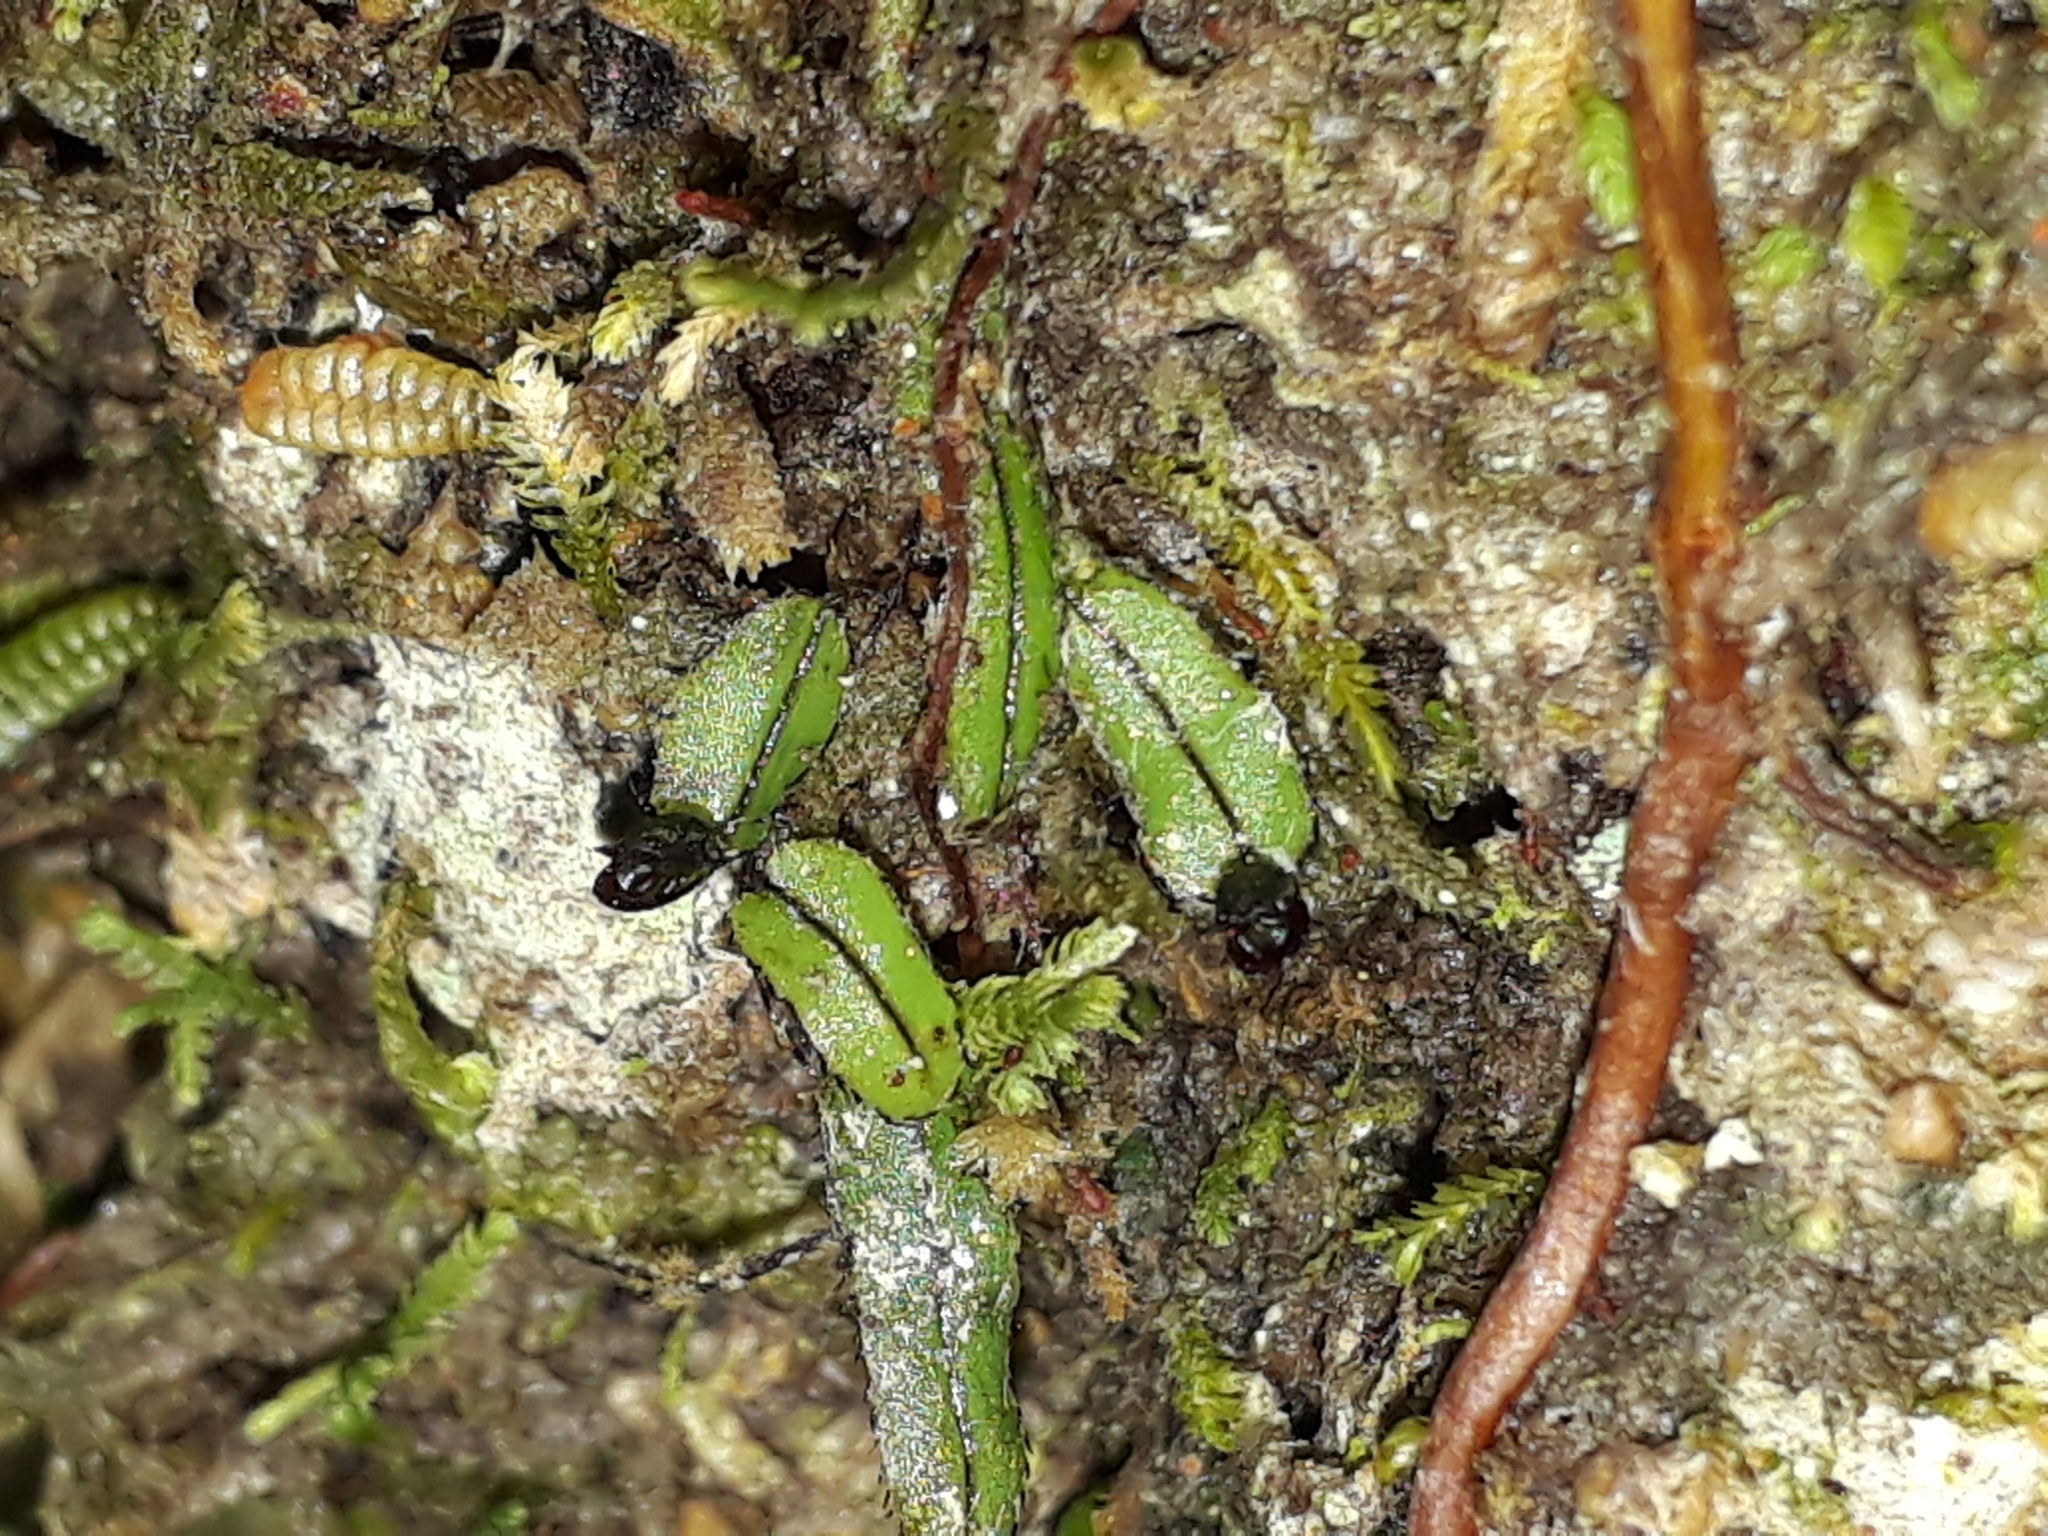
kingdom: Plantae
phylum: Tracheophyta
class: Polypodiopsida
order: Hymenophyllales
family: Hymenophyllaceae
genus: Hymenophyllum
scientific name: Hymenophyllum armstrongii
